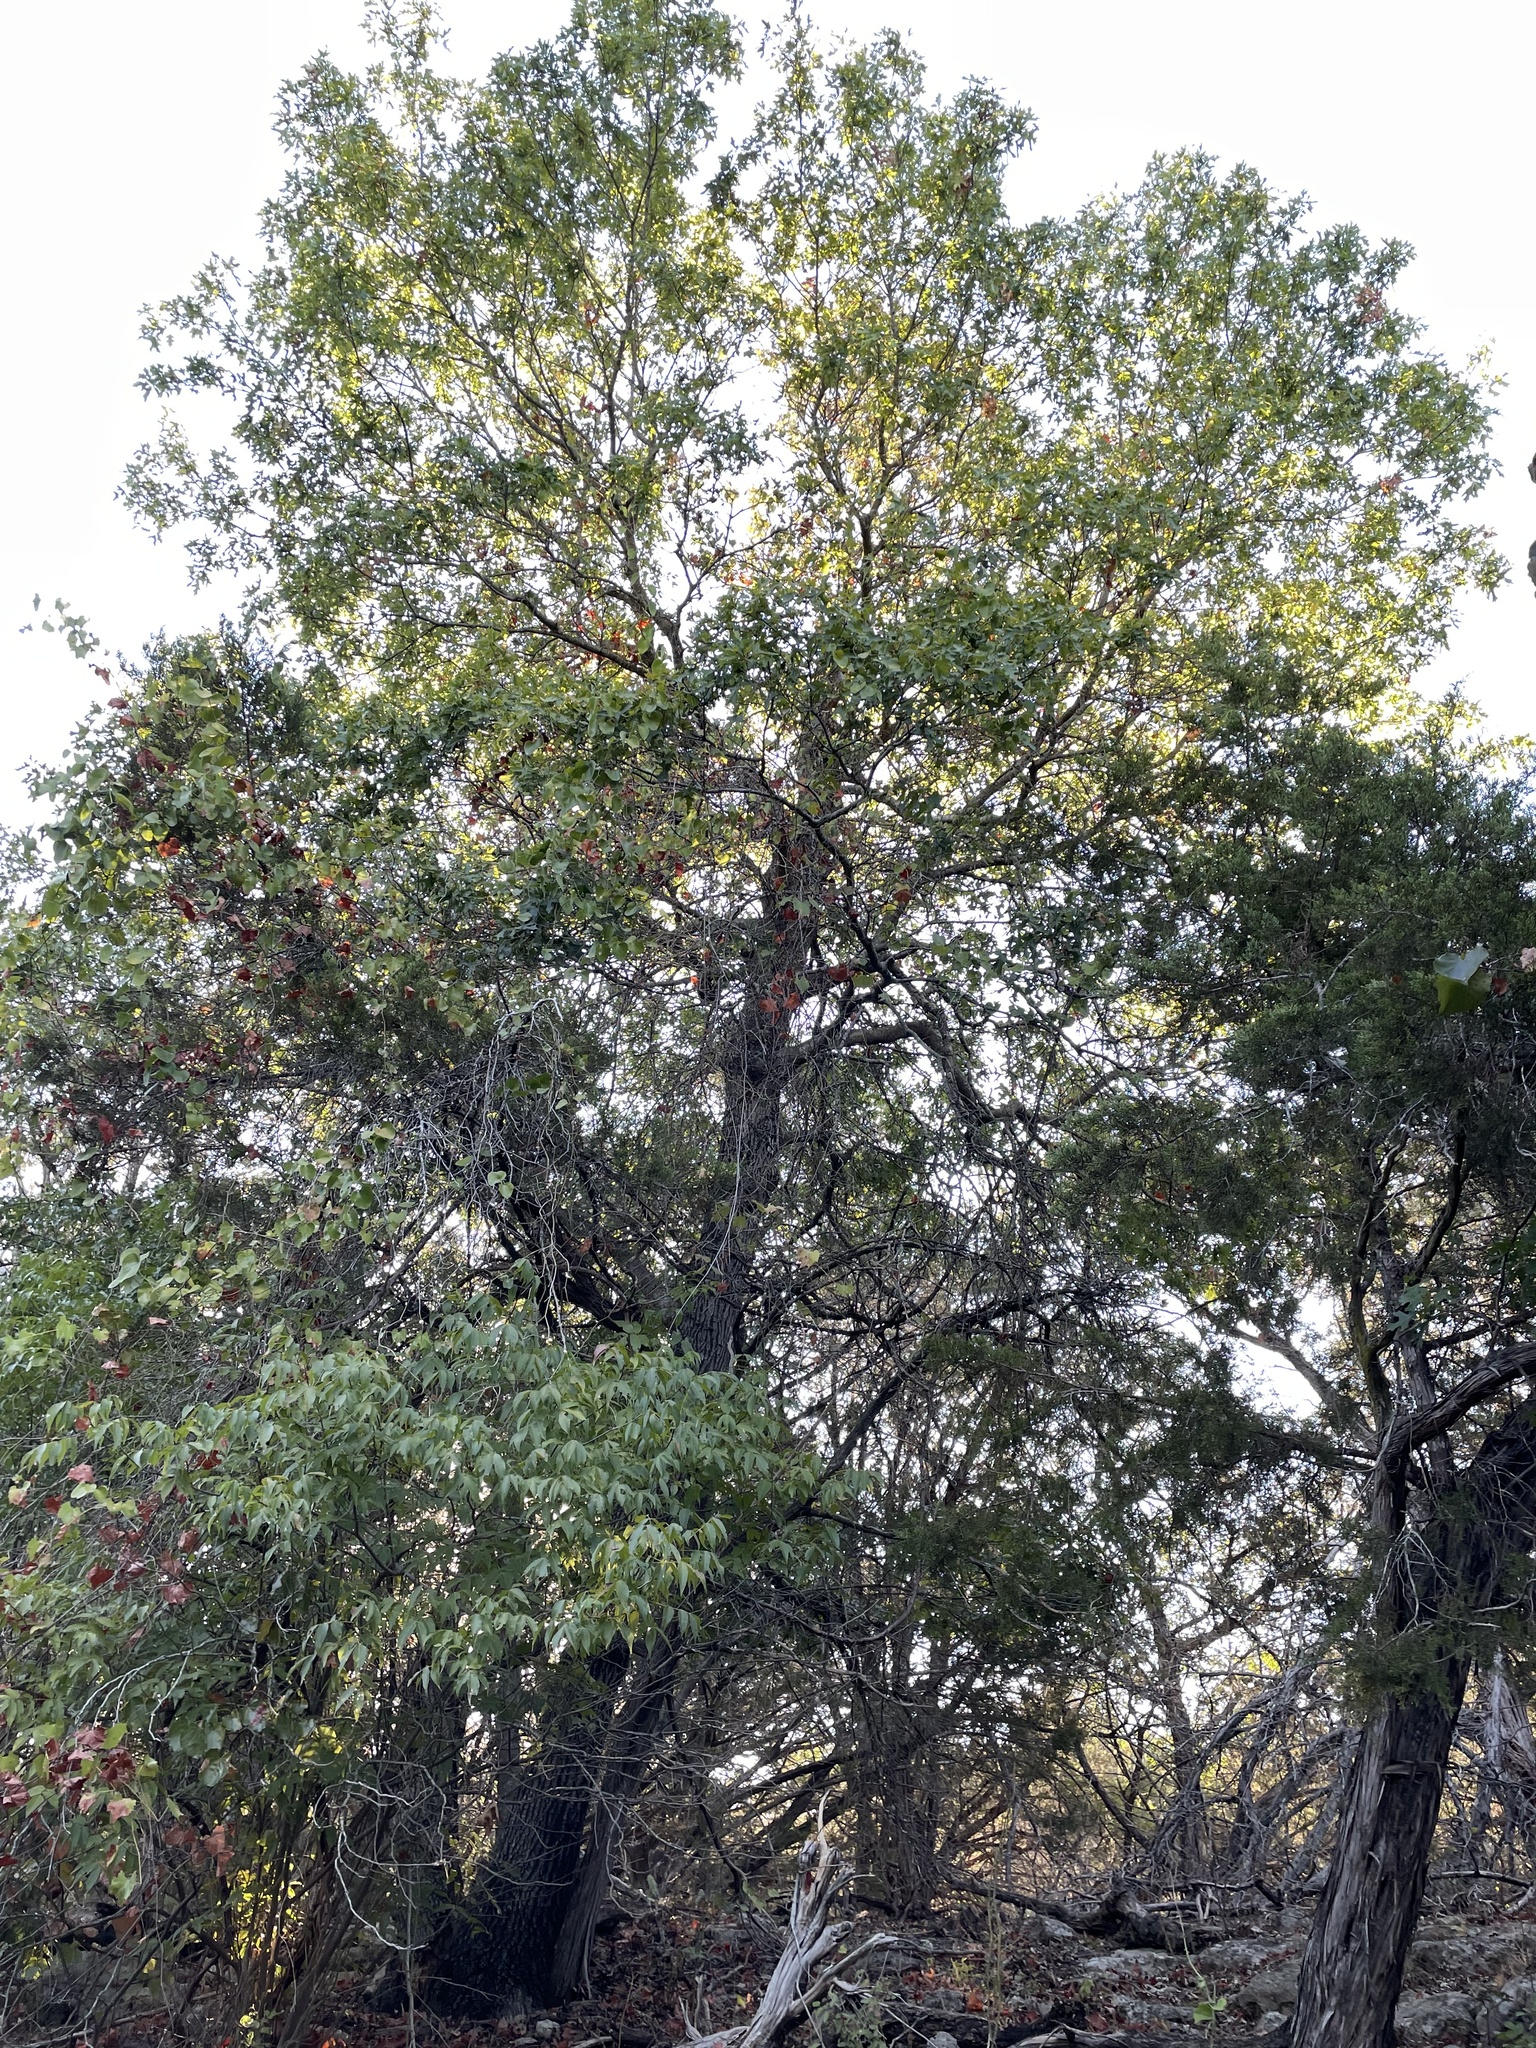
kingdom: Plantae
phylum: Tracheophyta
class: Magnoliopsida
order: Fagales
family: Fagaceae
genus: Quercus
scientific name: Quercus buckleyi
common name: Buckley oak
